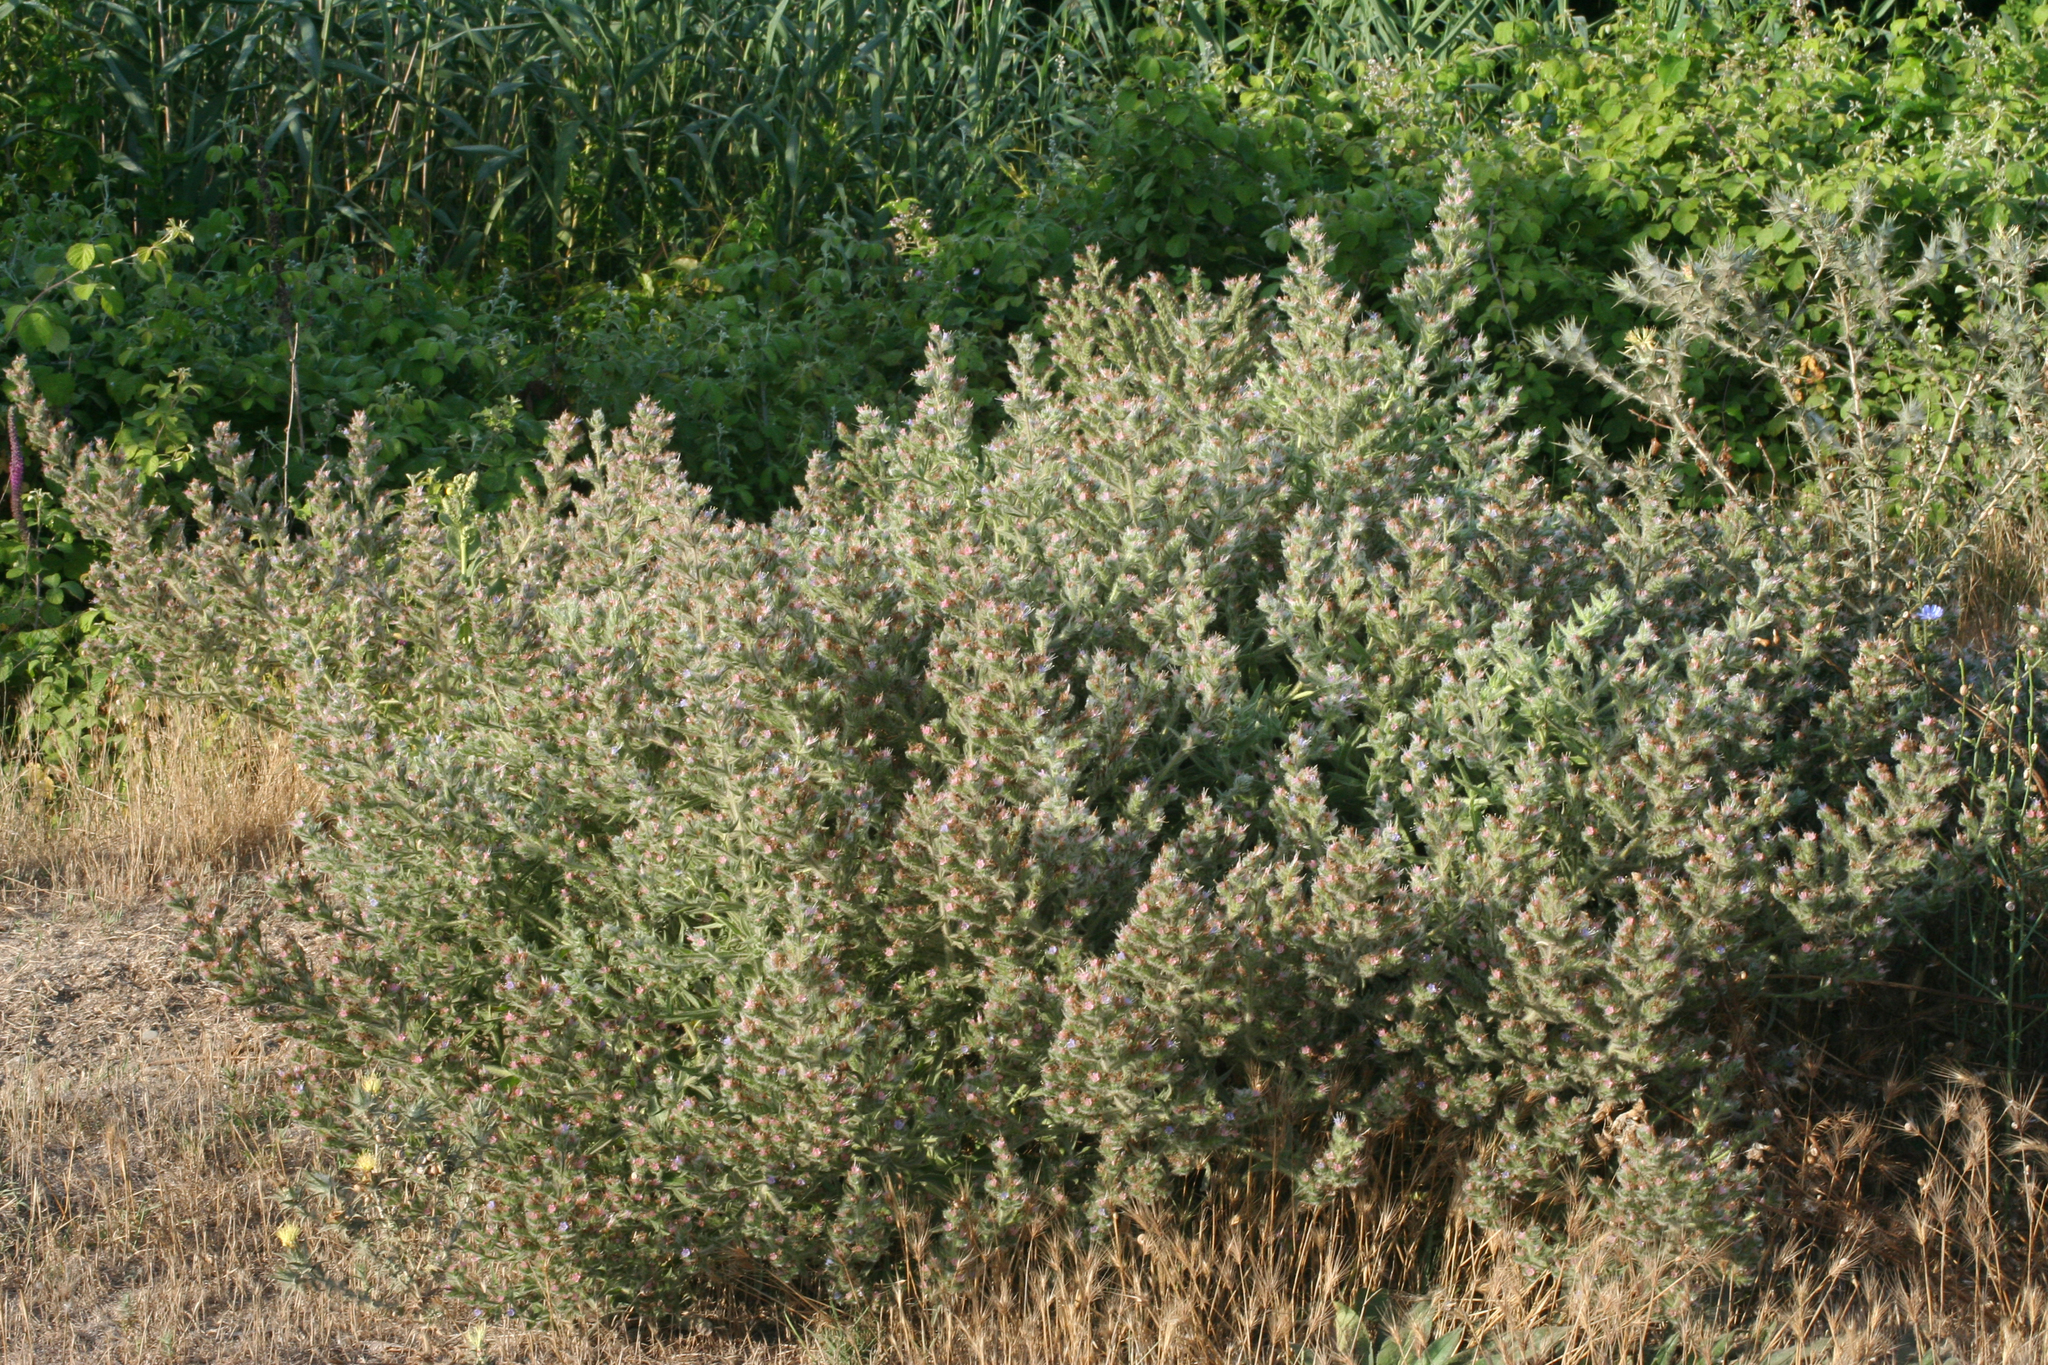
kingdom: Plantae
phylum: Tracheophyta
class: Magnoliopsida
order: Boraginales
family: Boraginaceae
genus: Echium
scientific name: Echium italicum
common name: Italian viper's bugloss
